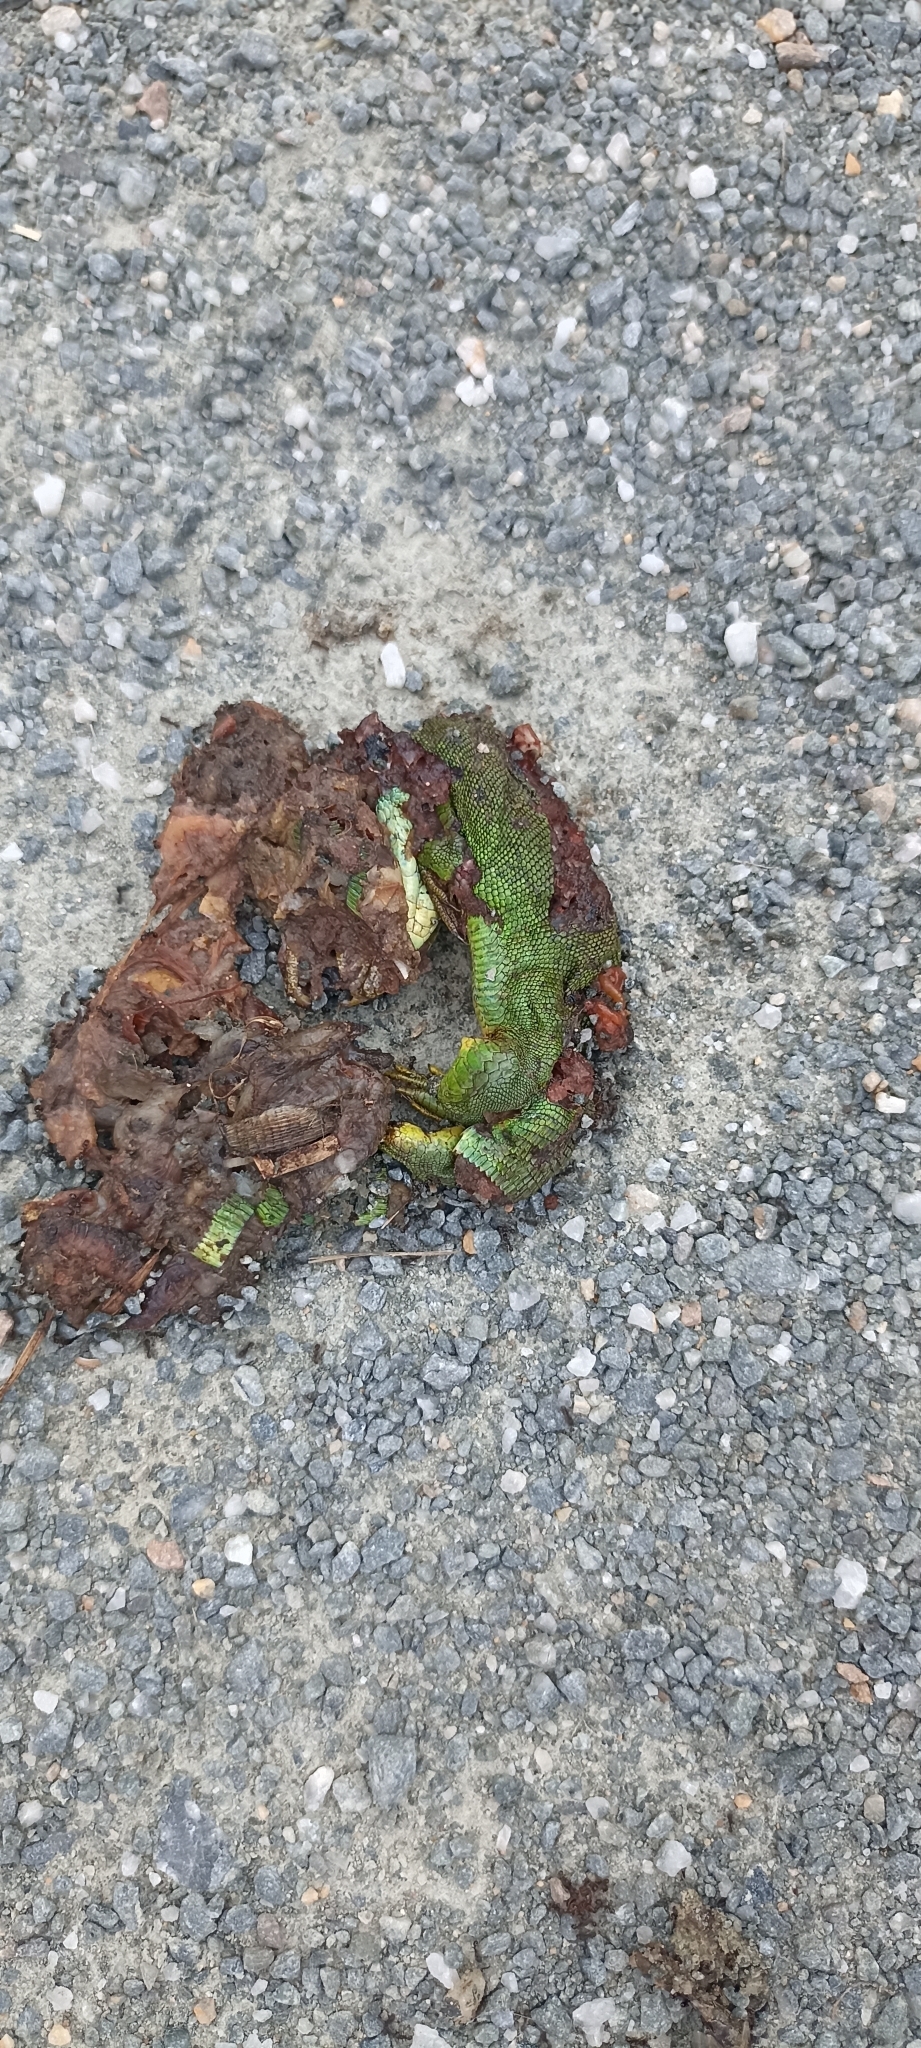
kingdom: Animalia
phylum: Chordata
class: Squamata
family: Lacertidae
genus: Lacerta
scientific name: Lacerta bilineata
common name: Western green lizard
